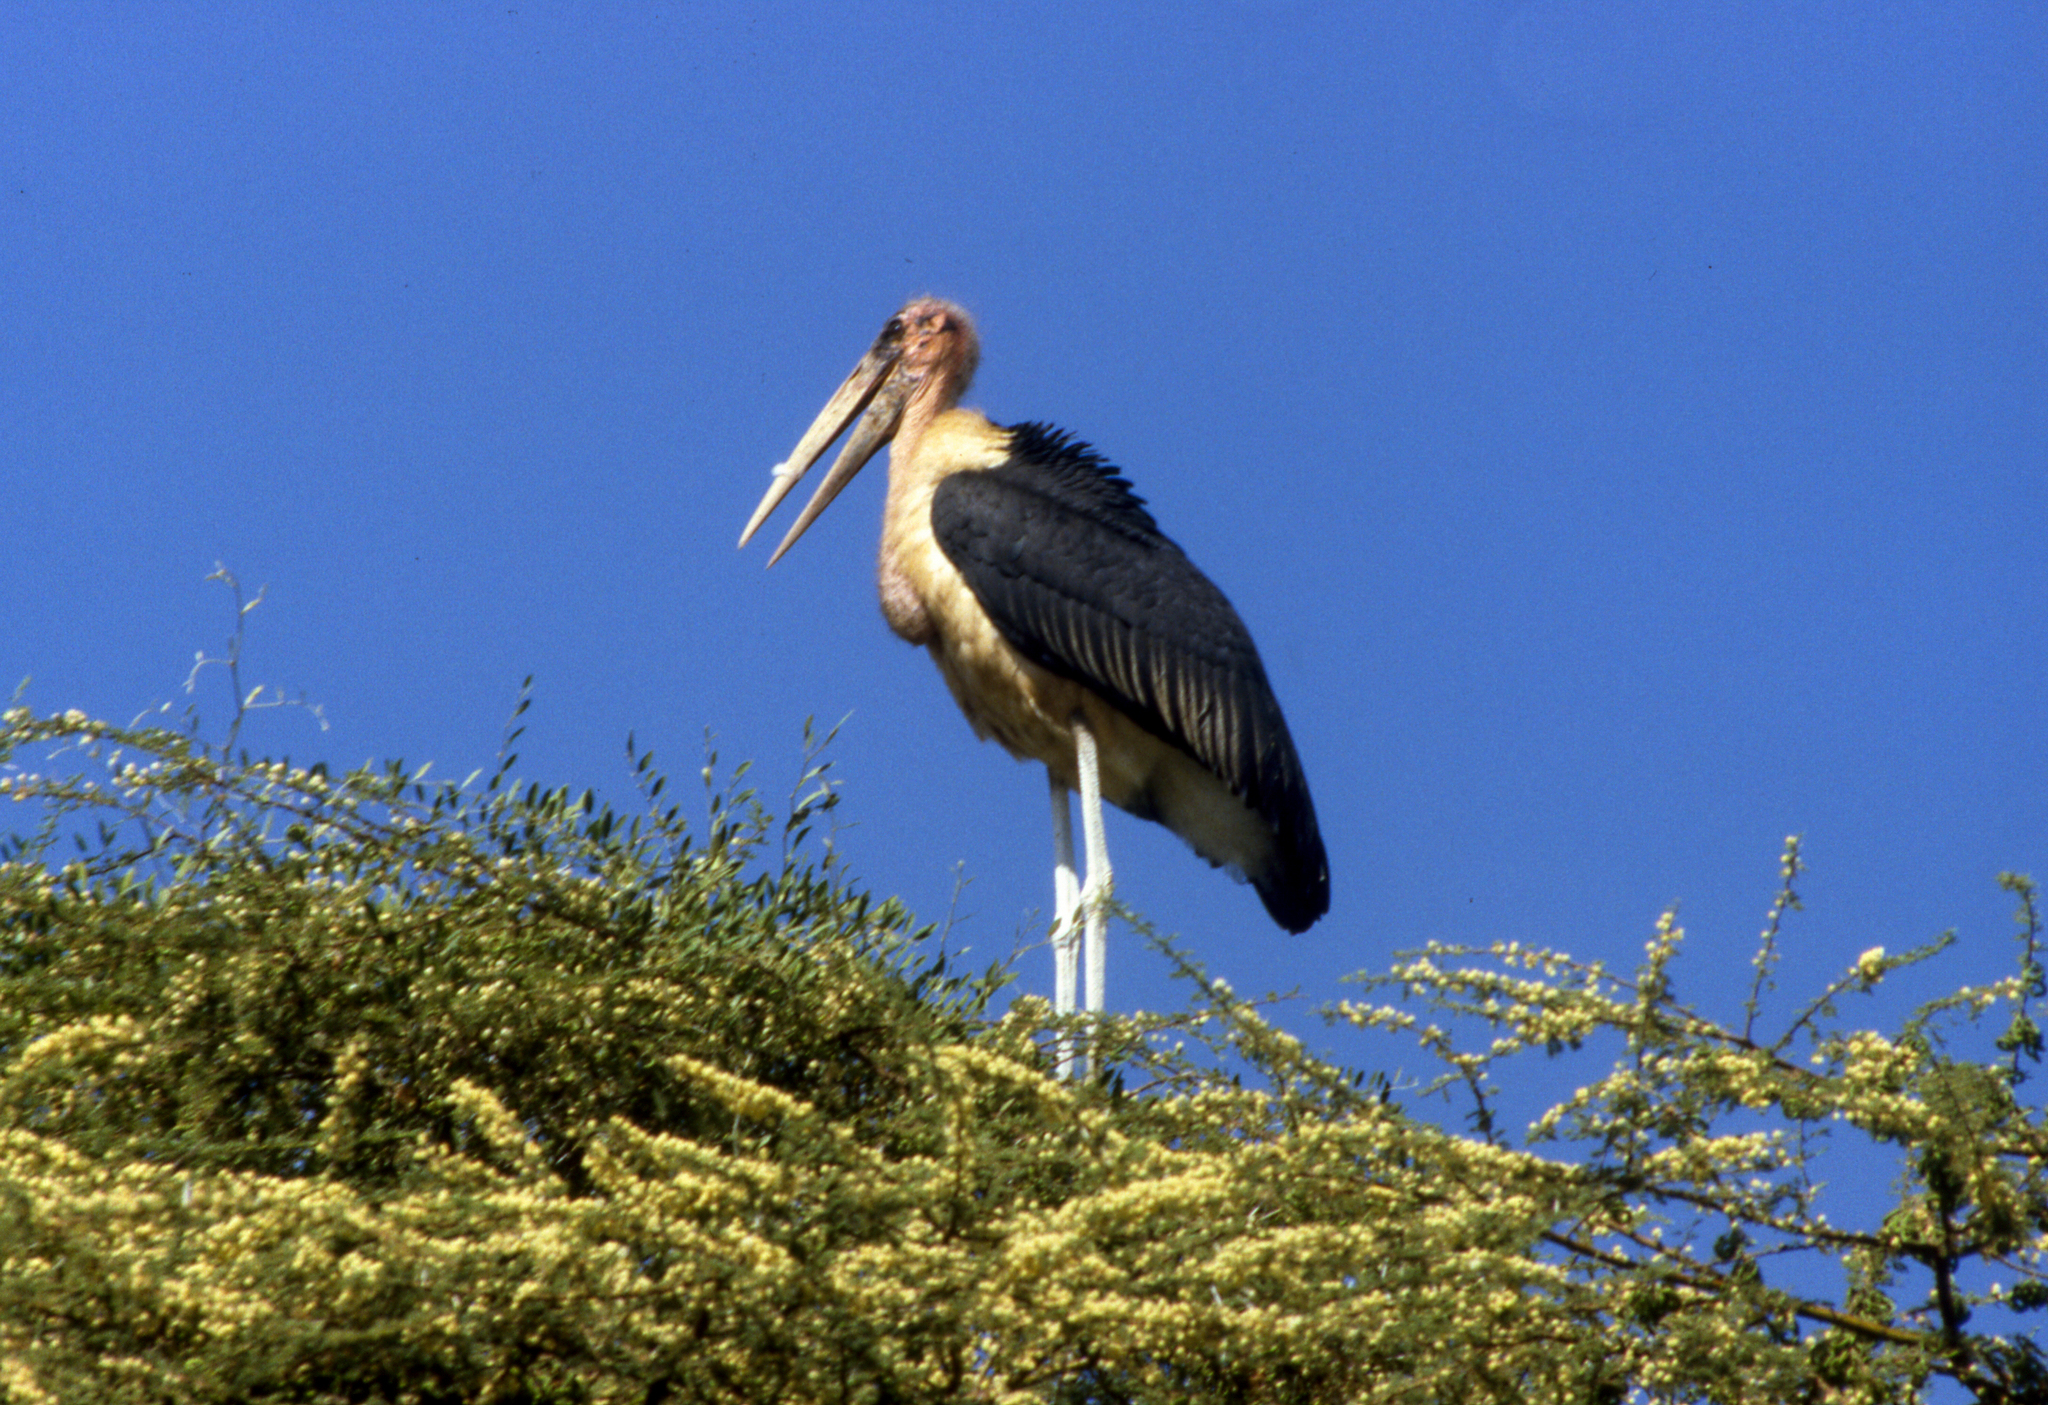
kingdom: Animalia
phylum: Chordata
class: Aves
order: Ciconiiformes
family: Ciconiidae
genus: Leptoptilos
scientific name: Leptoptilos crumenifer
